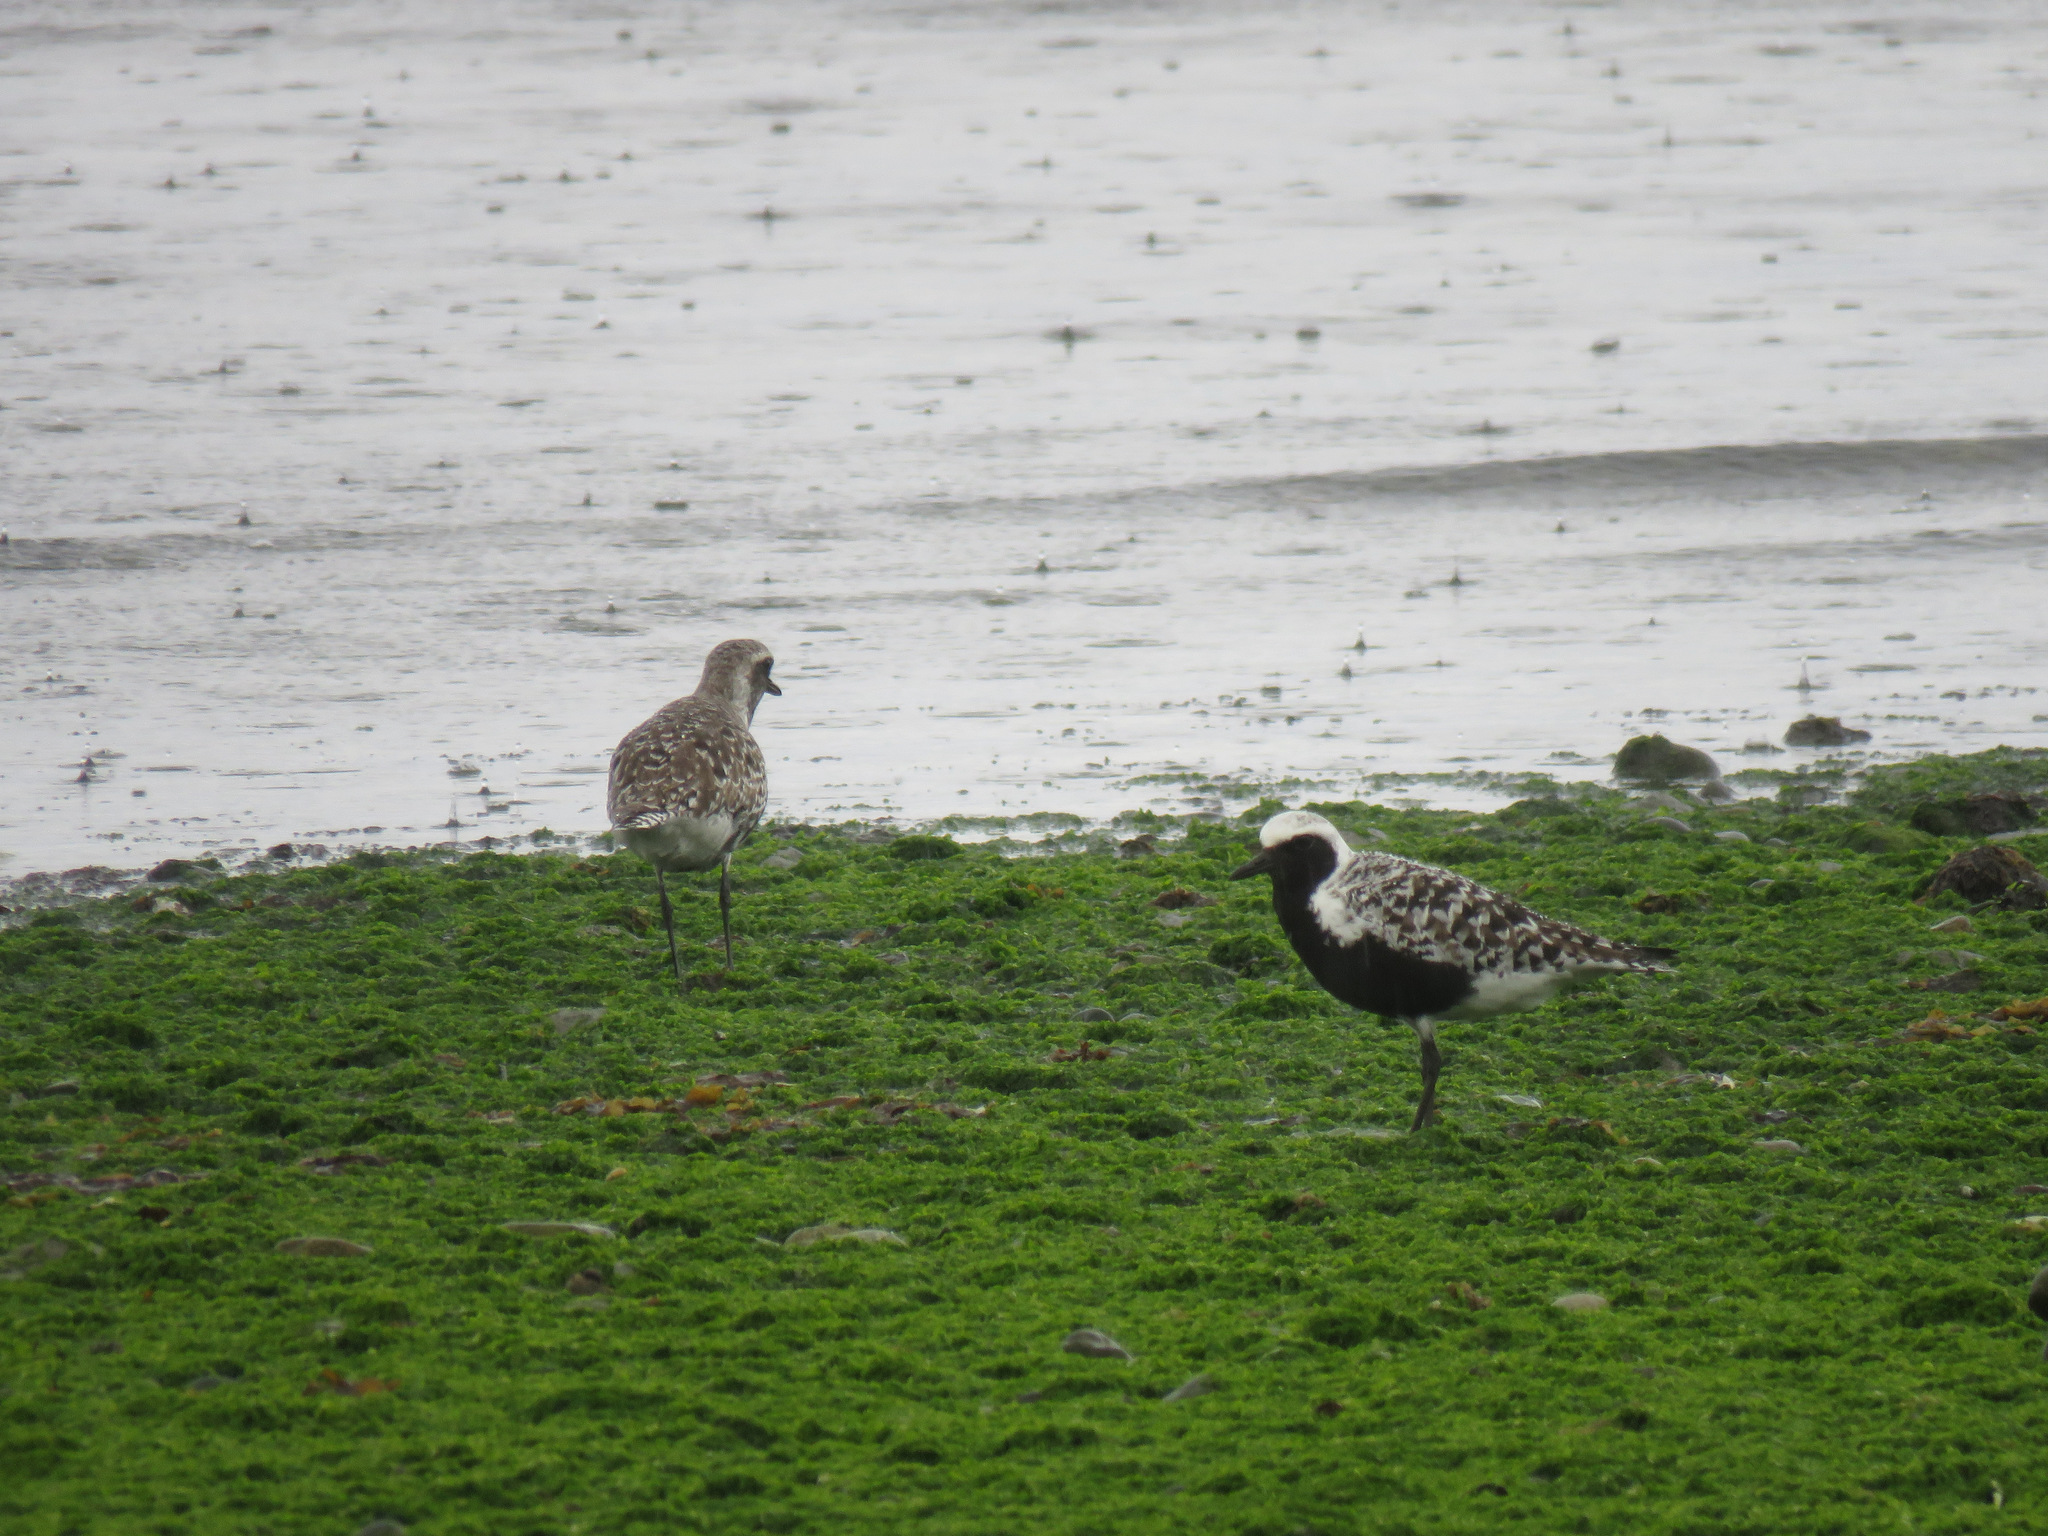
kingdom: Animalia
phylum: Chordata
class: Aves
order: Charadriiformes
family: Charadriidae
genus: Pluvialis
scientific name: Pluvialis squatarola
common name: Grey plover
